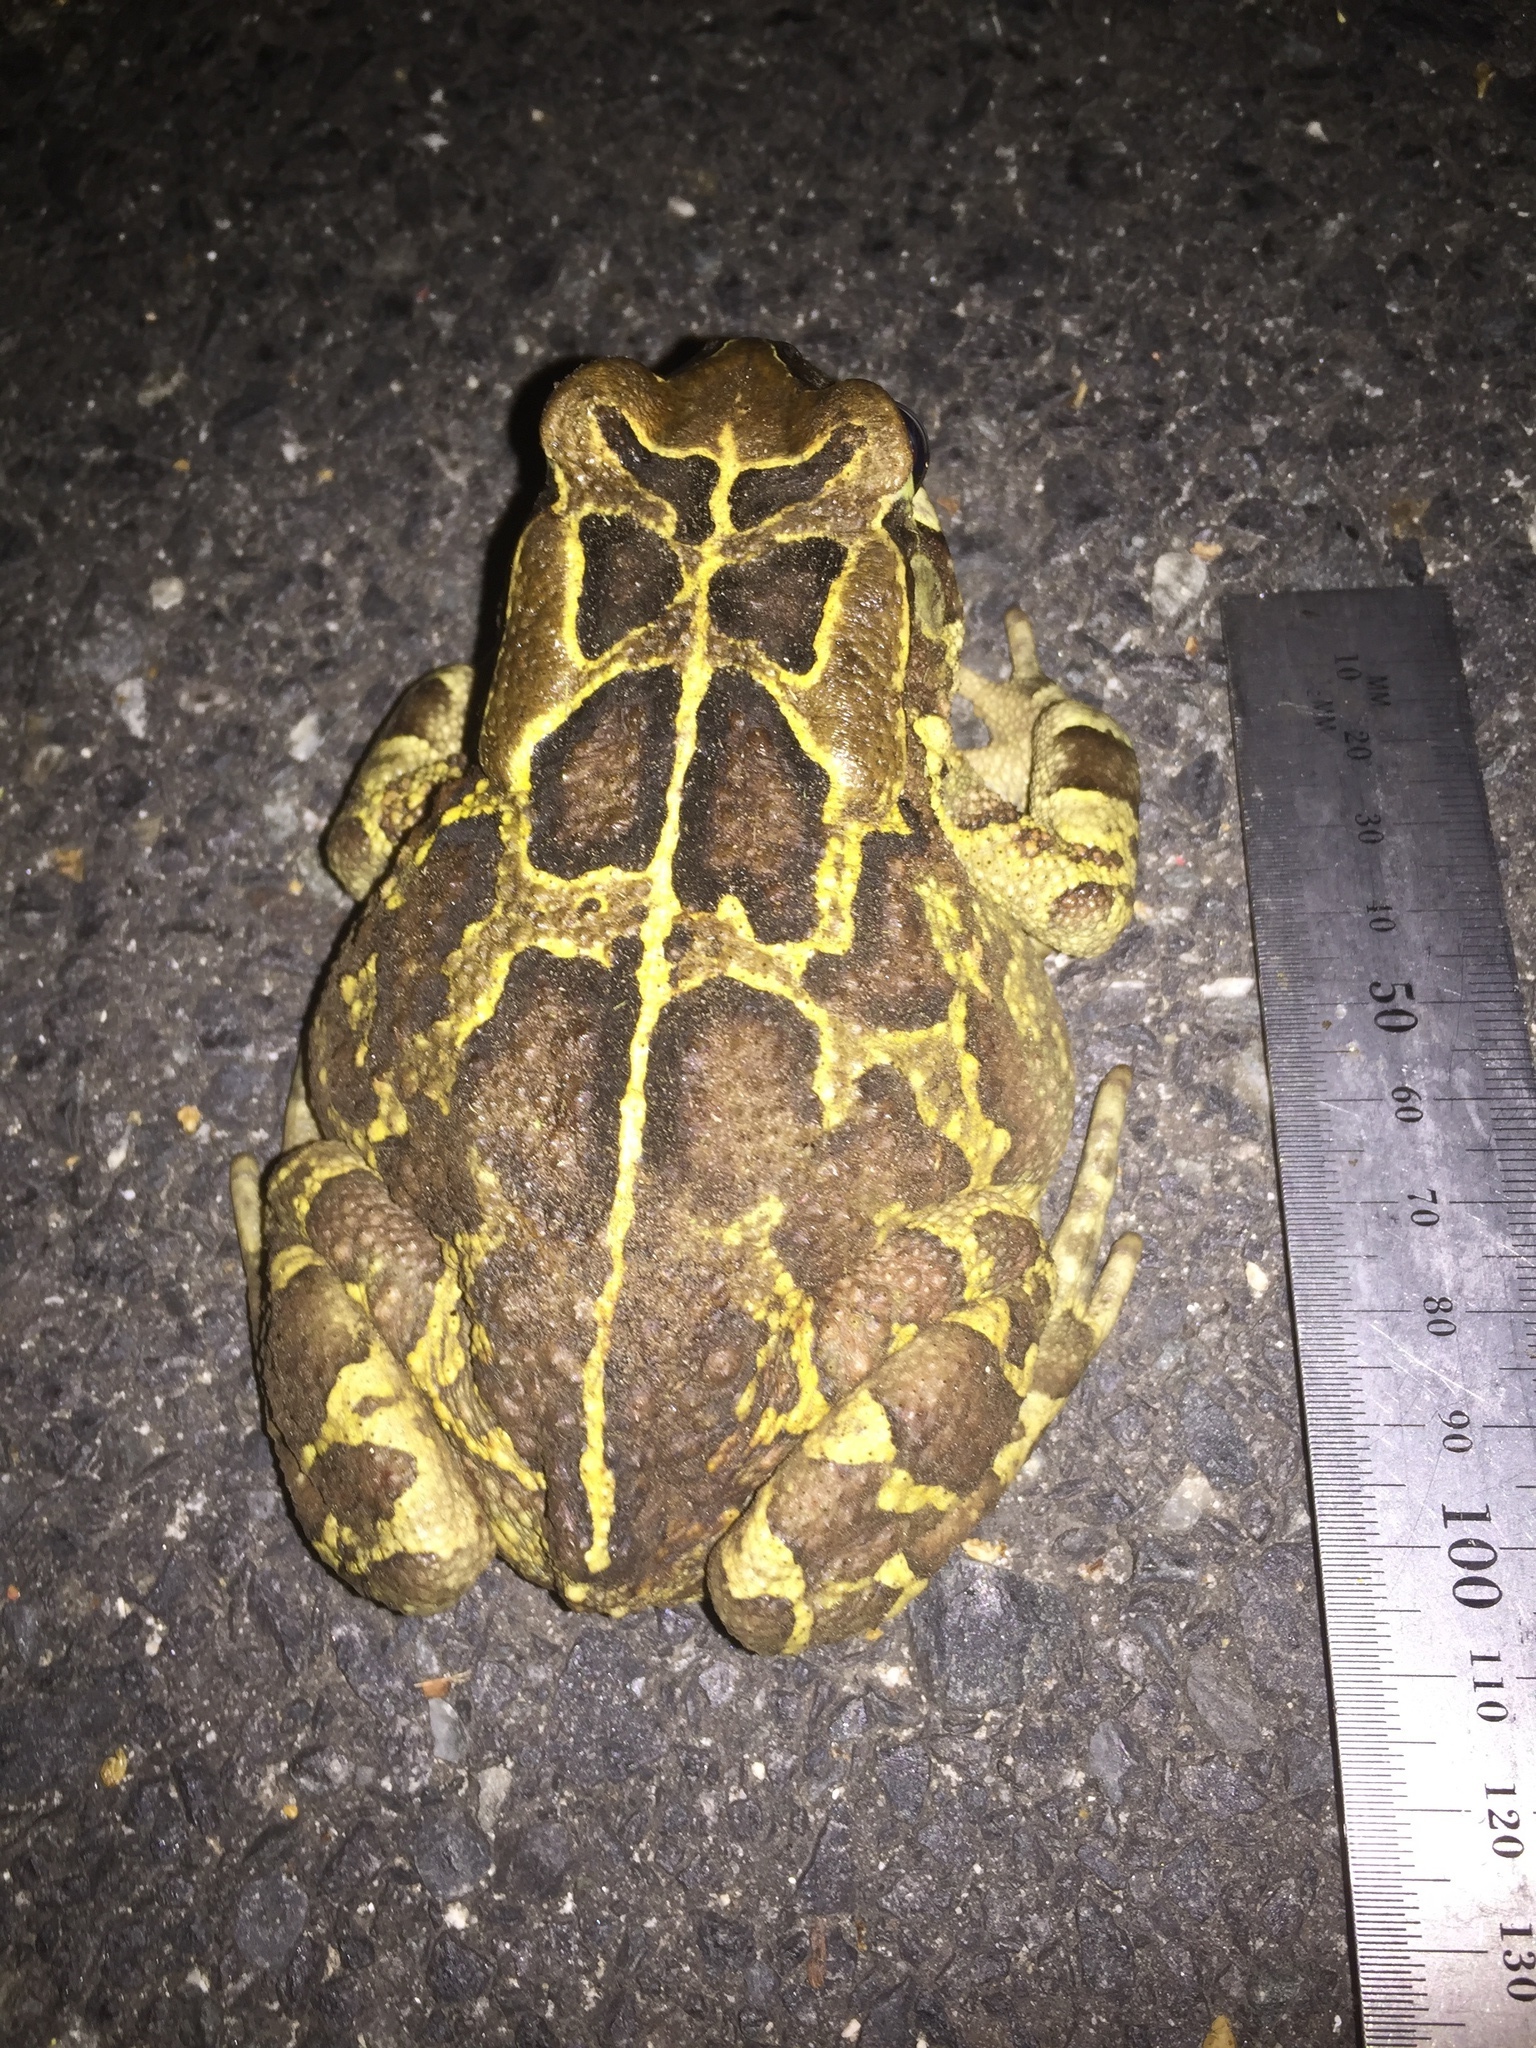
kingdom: Animalia
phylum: Chordata
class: Amphibia
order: Anura
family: Bufonidae
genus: Sclerophrys
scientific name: Sclerophrys pantherina
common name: Panther toad
